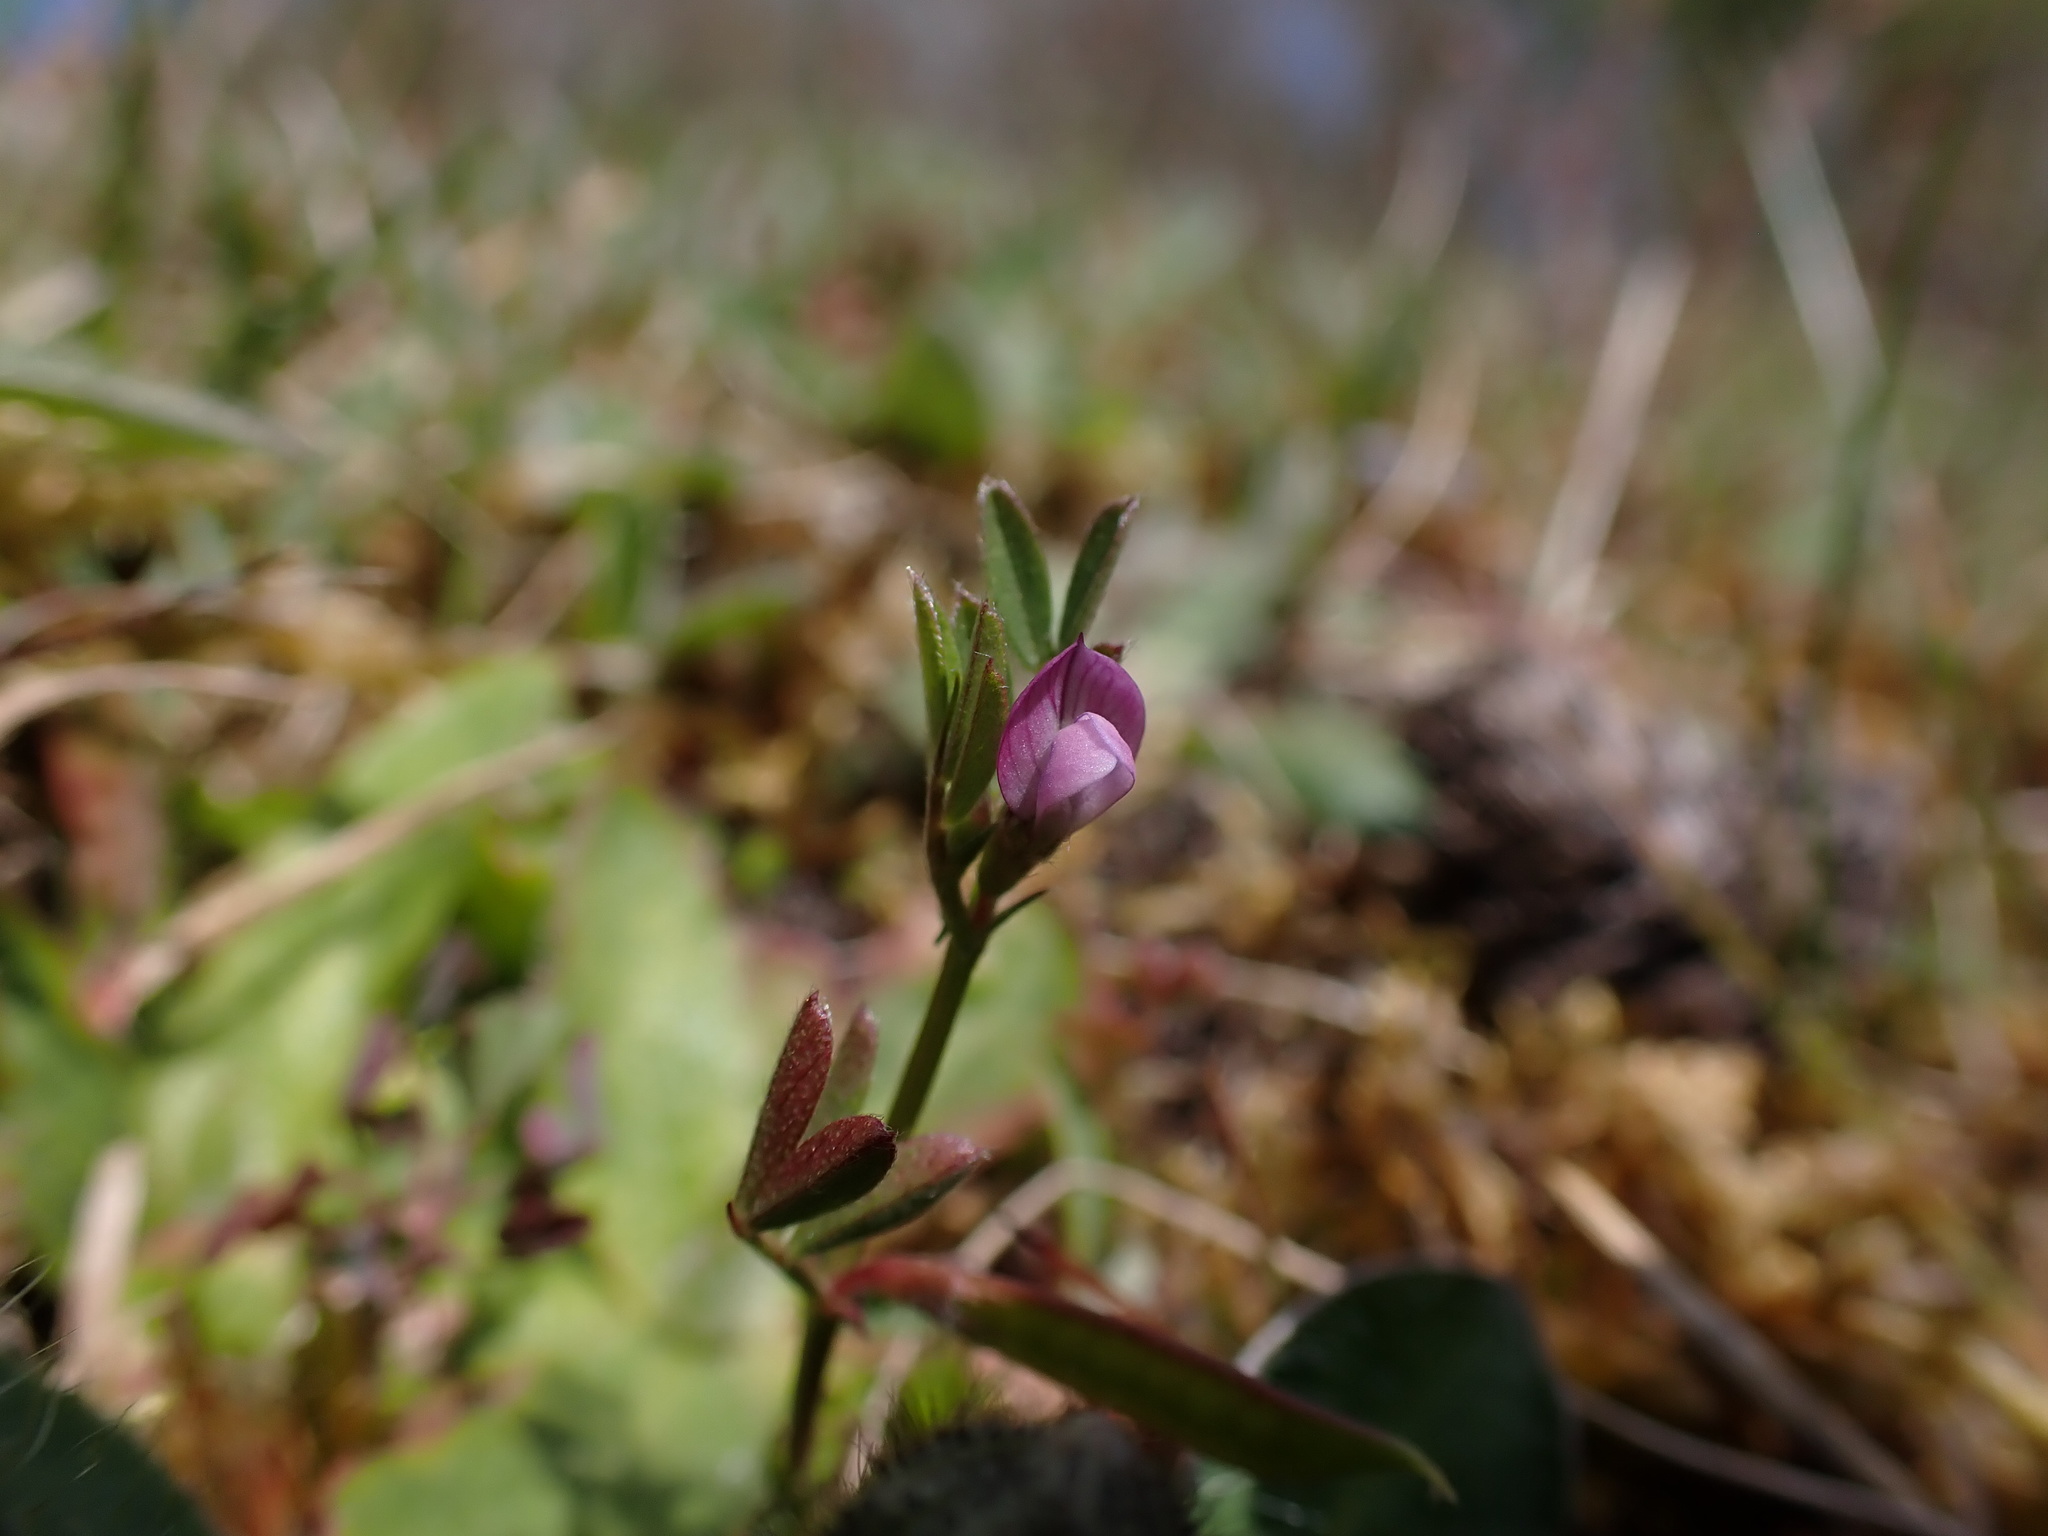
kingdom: Plantae
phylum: Tracheophyta
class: Magnoliopsida
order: Fabales
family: Fabaceae
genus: Vicia
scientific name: Vicia lathyroides
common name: Spring vetch
